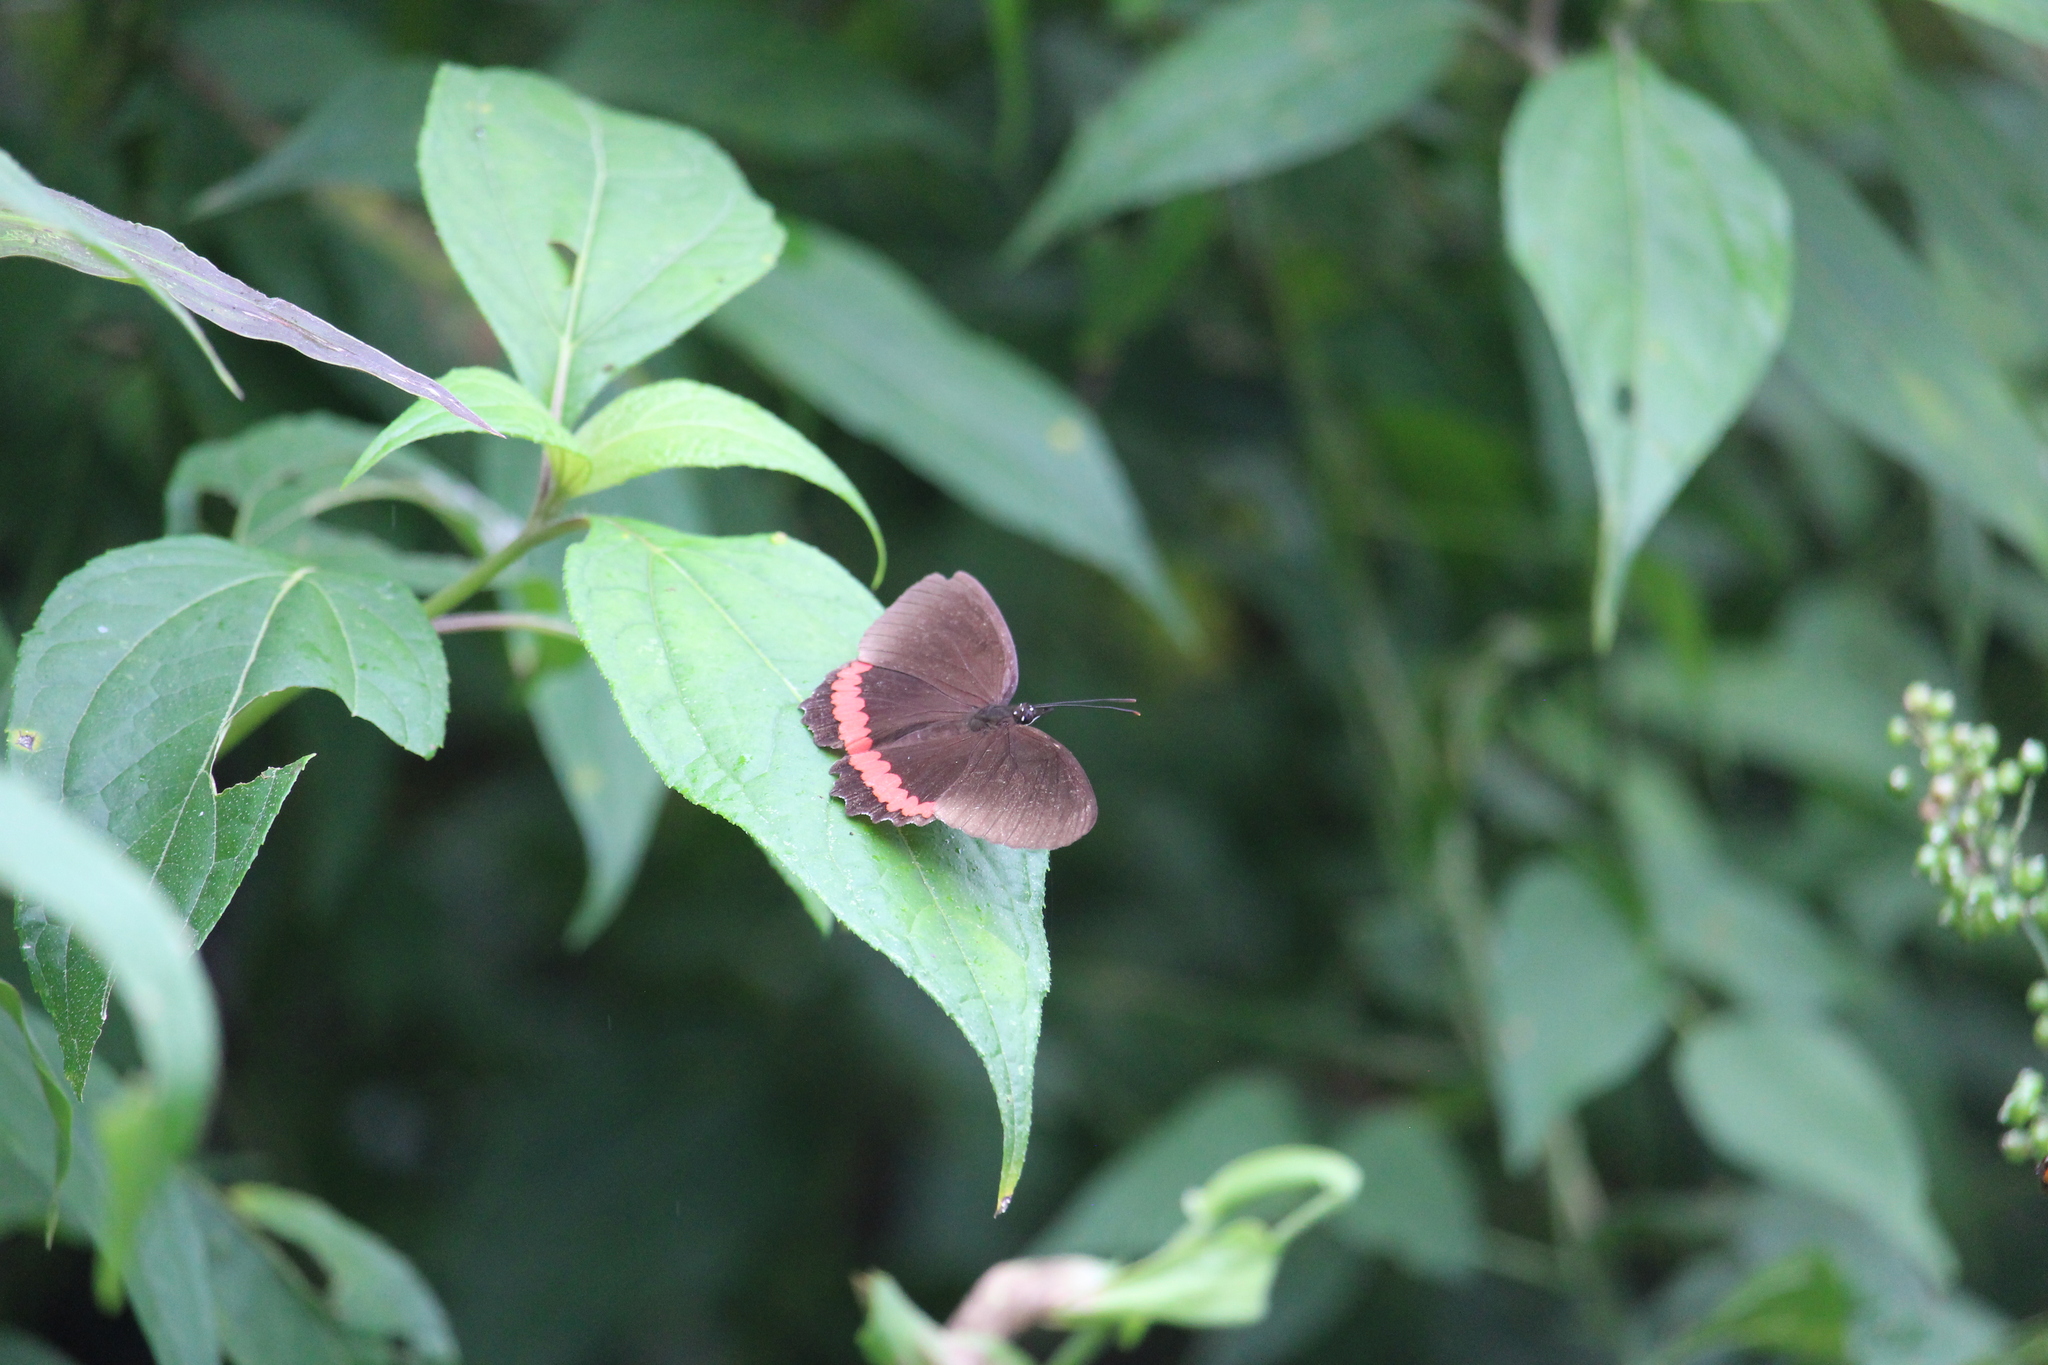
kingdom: Animalia
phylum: Arthropoda
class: Insecta
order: Lepidoptera
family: Nymphalidae
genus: Biblis
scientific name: Biblis aganisa
